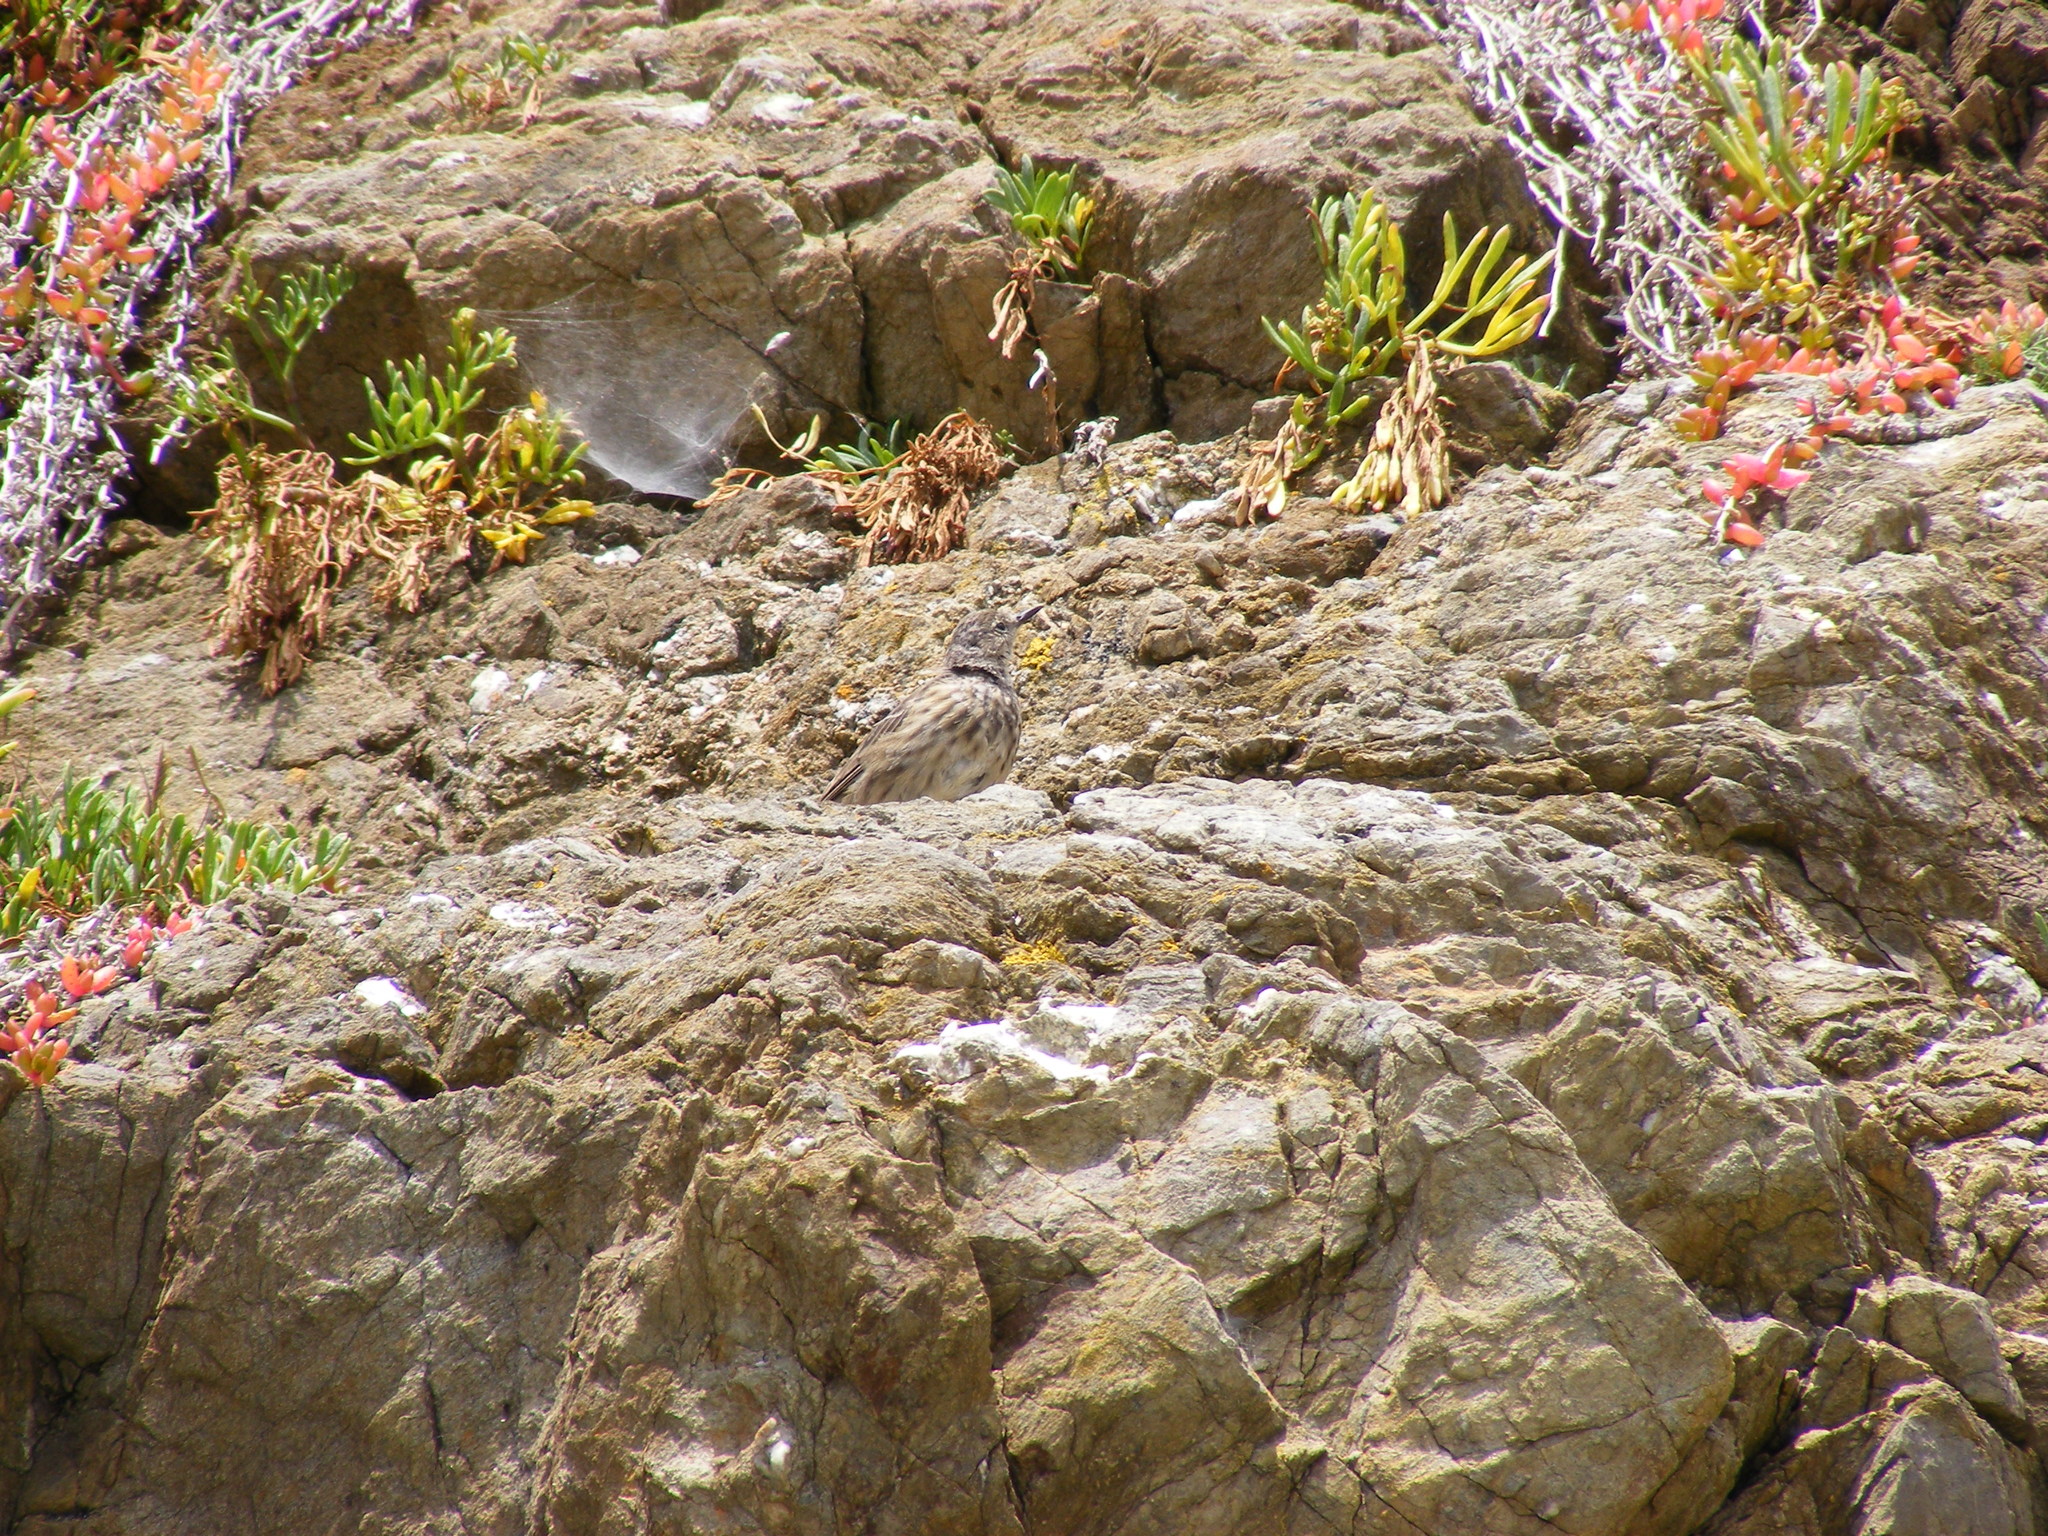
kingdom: Animalia
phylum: Chordata
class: Aves
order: Passeriformes
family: Motacillidae
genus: Anthus
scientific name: Anthus petrosus
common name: Eurasian rock pipit
